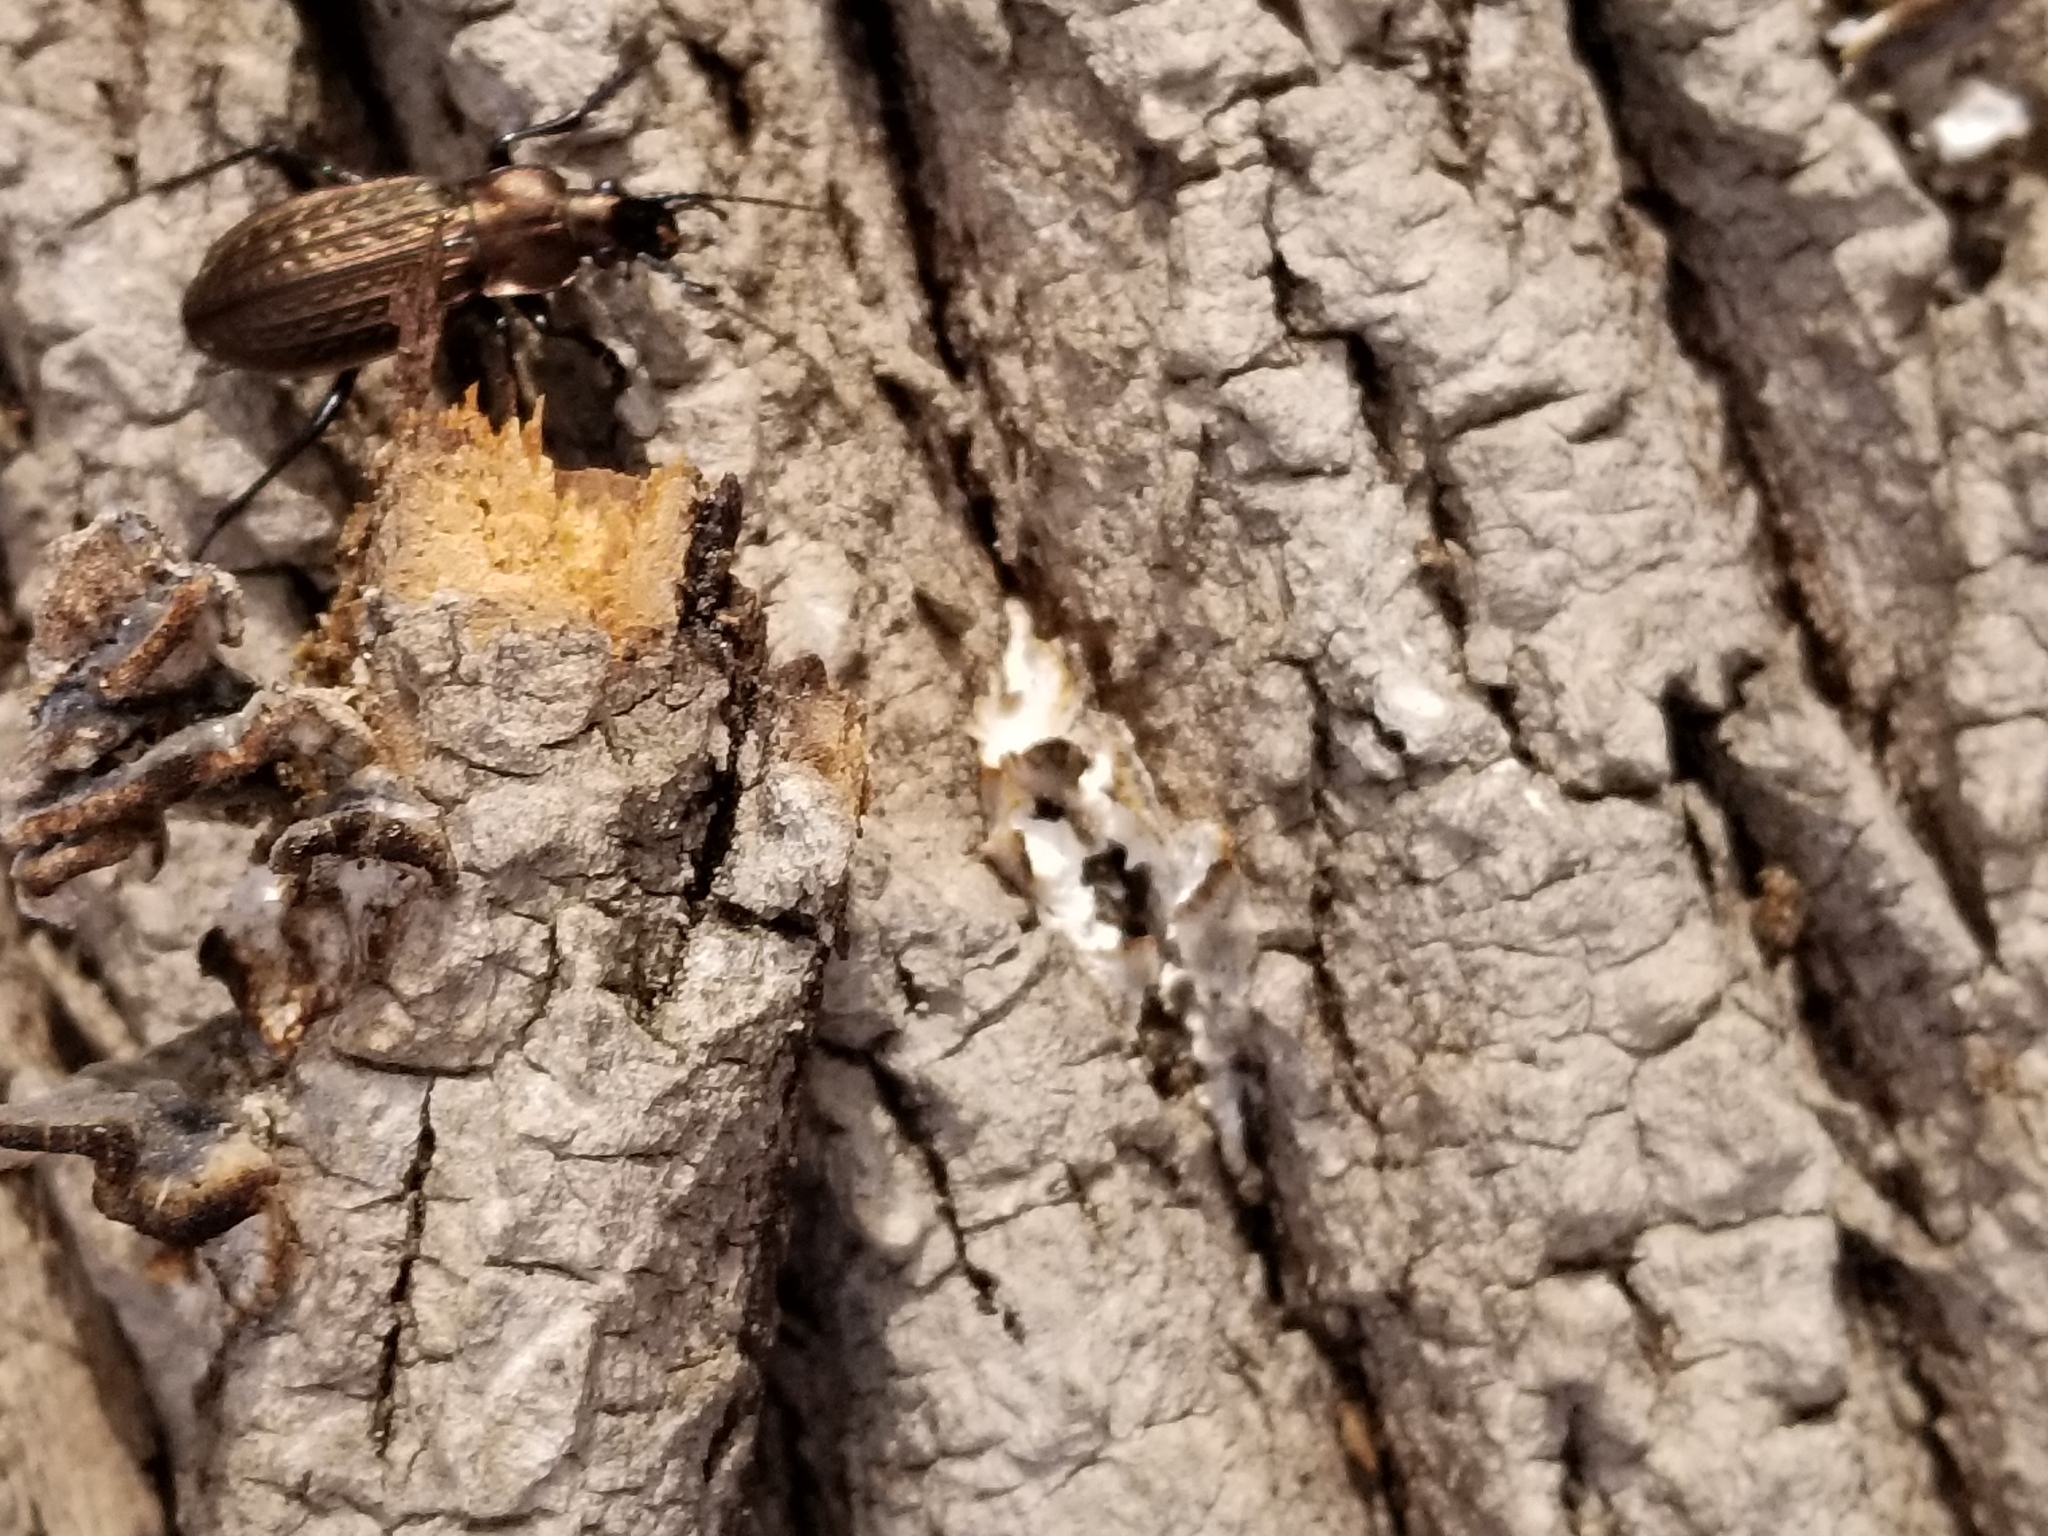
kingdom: Animalia
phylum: Arthropoda
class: Insecta
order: Coleoptera
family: Carabidae
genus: Carabus
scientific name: Carabus granulatus
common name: Granulate ground beetle
